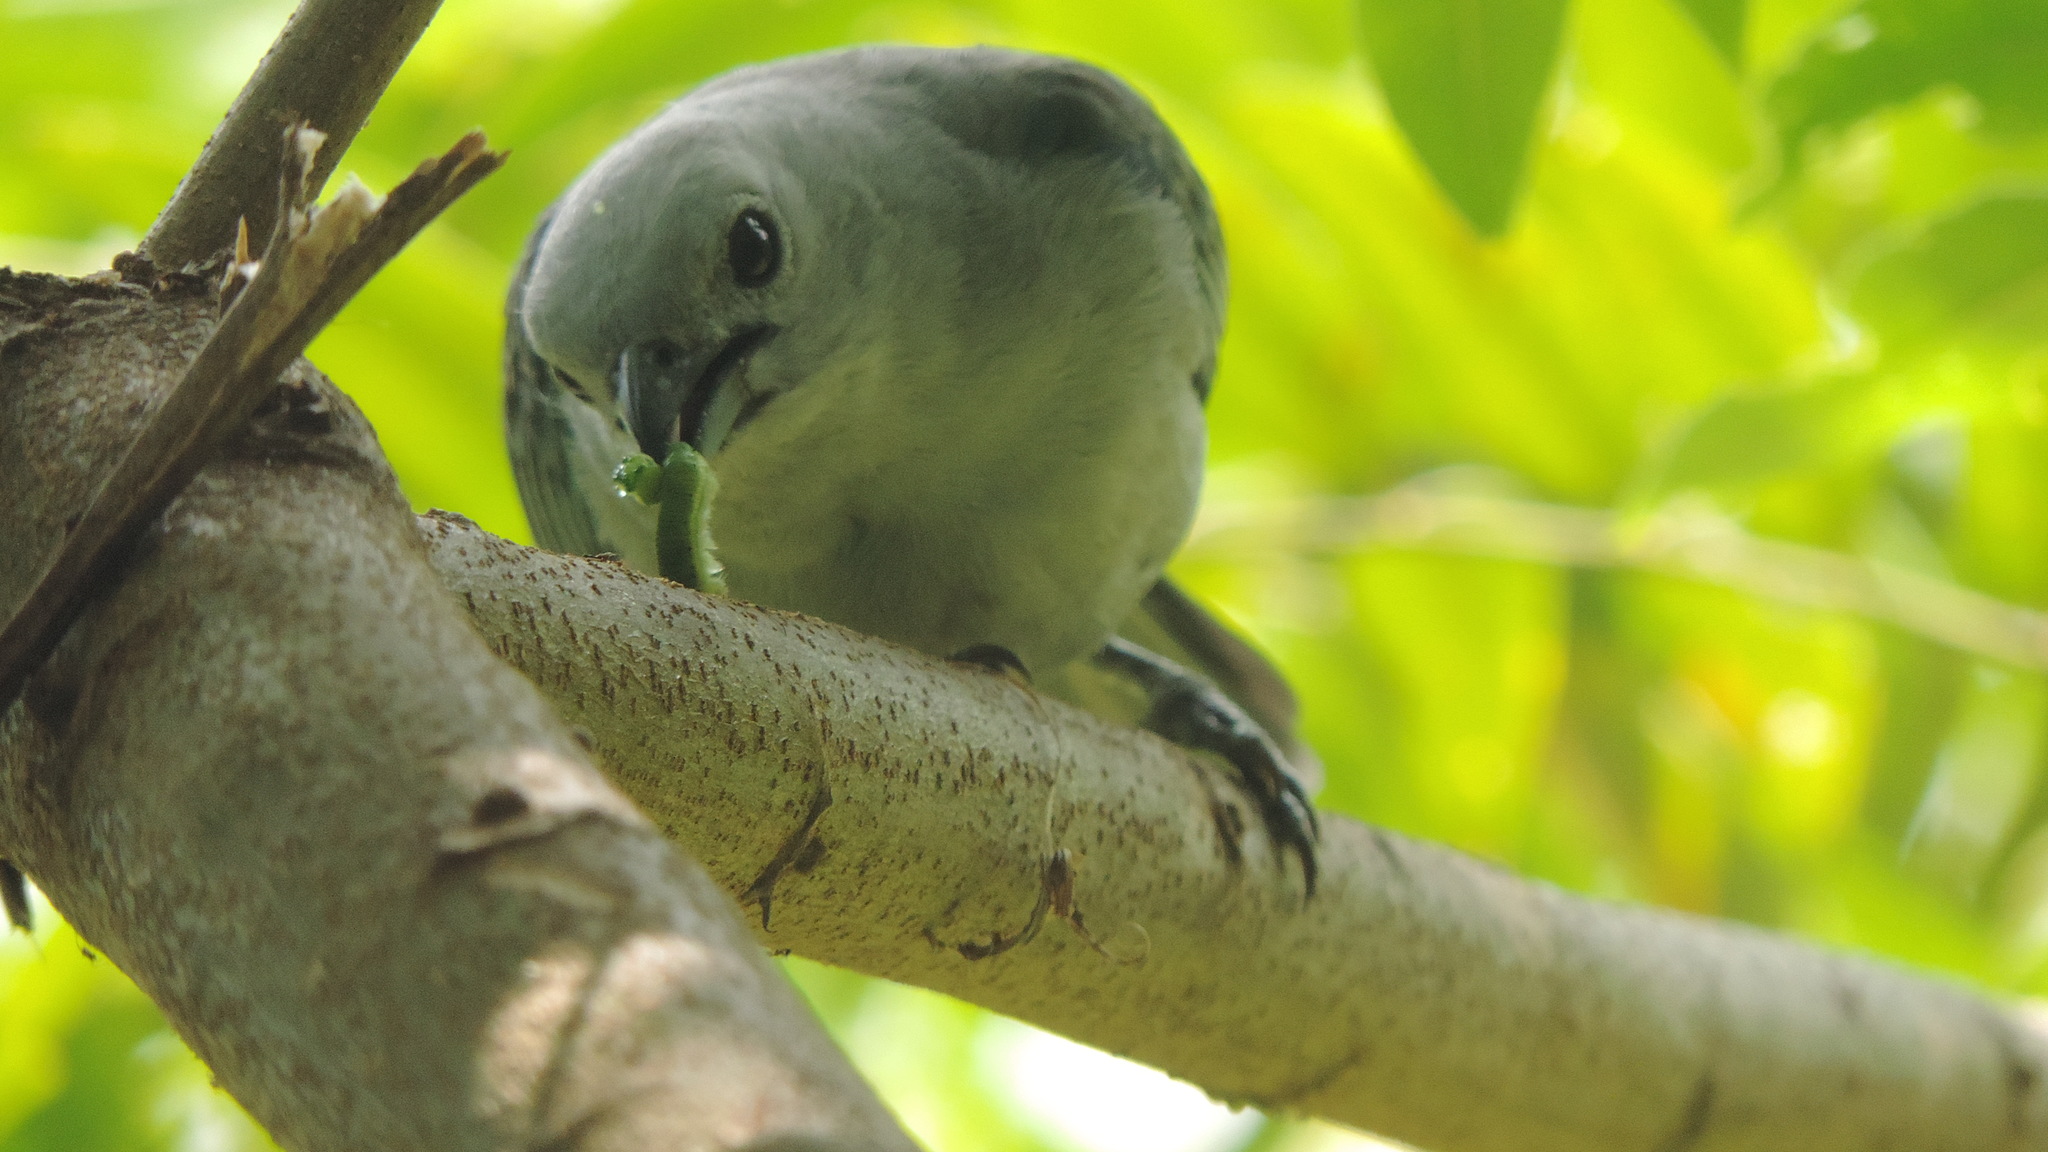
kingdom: Animalia
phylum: Chordata
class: Aves
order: Passeriformes
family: Thraupidae
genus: Thraupis
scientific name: Thraupis episcopus
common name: Blue-grey tanager
